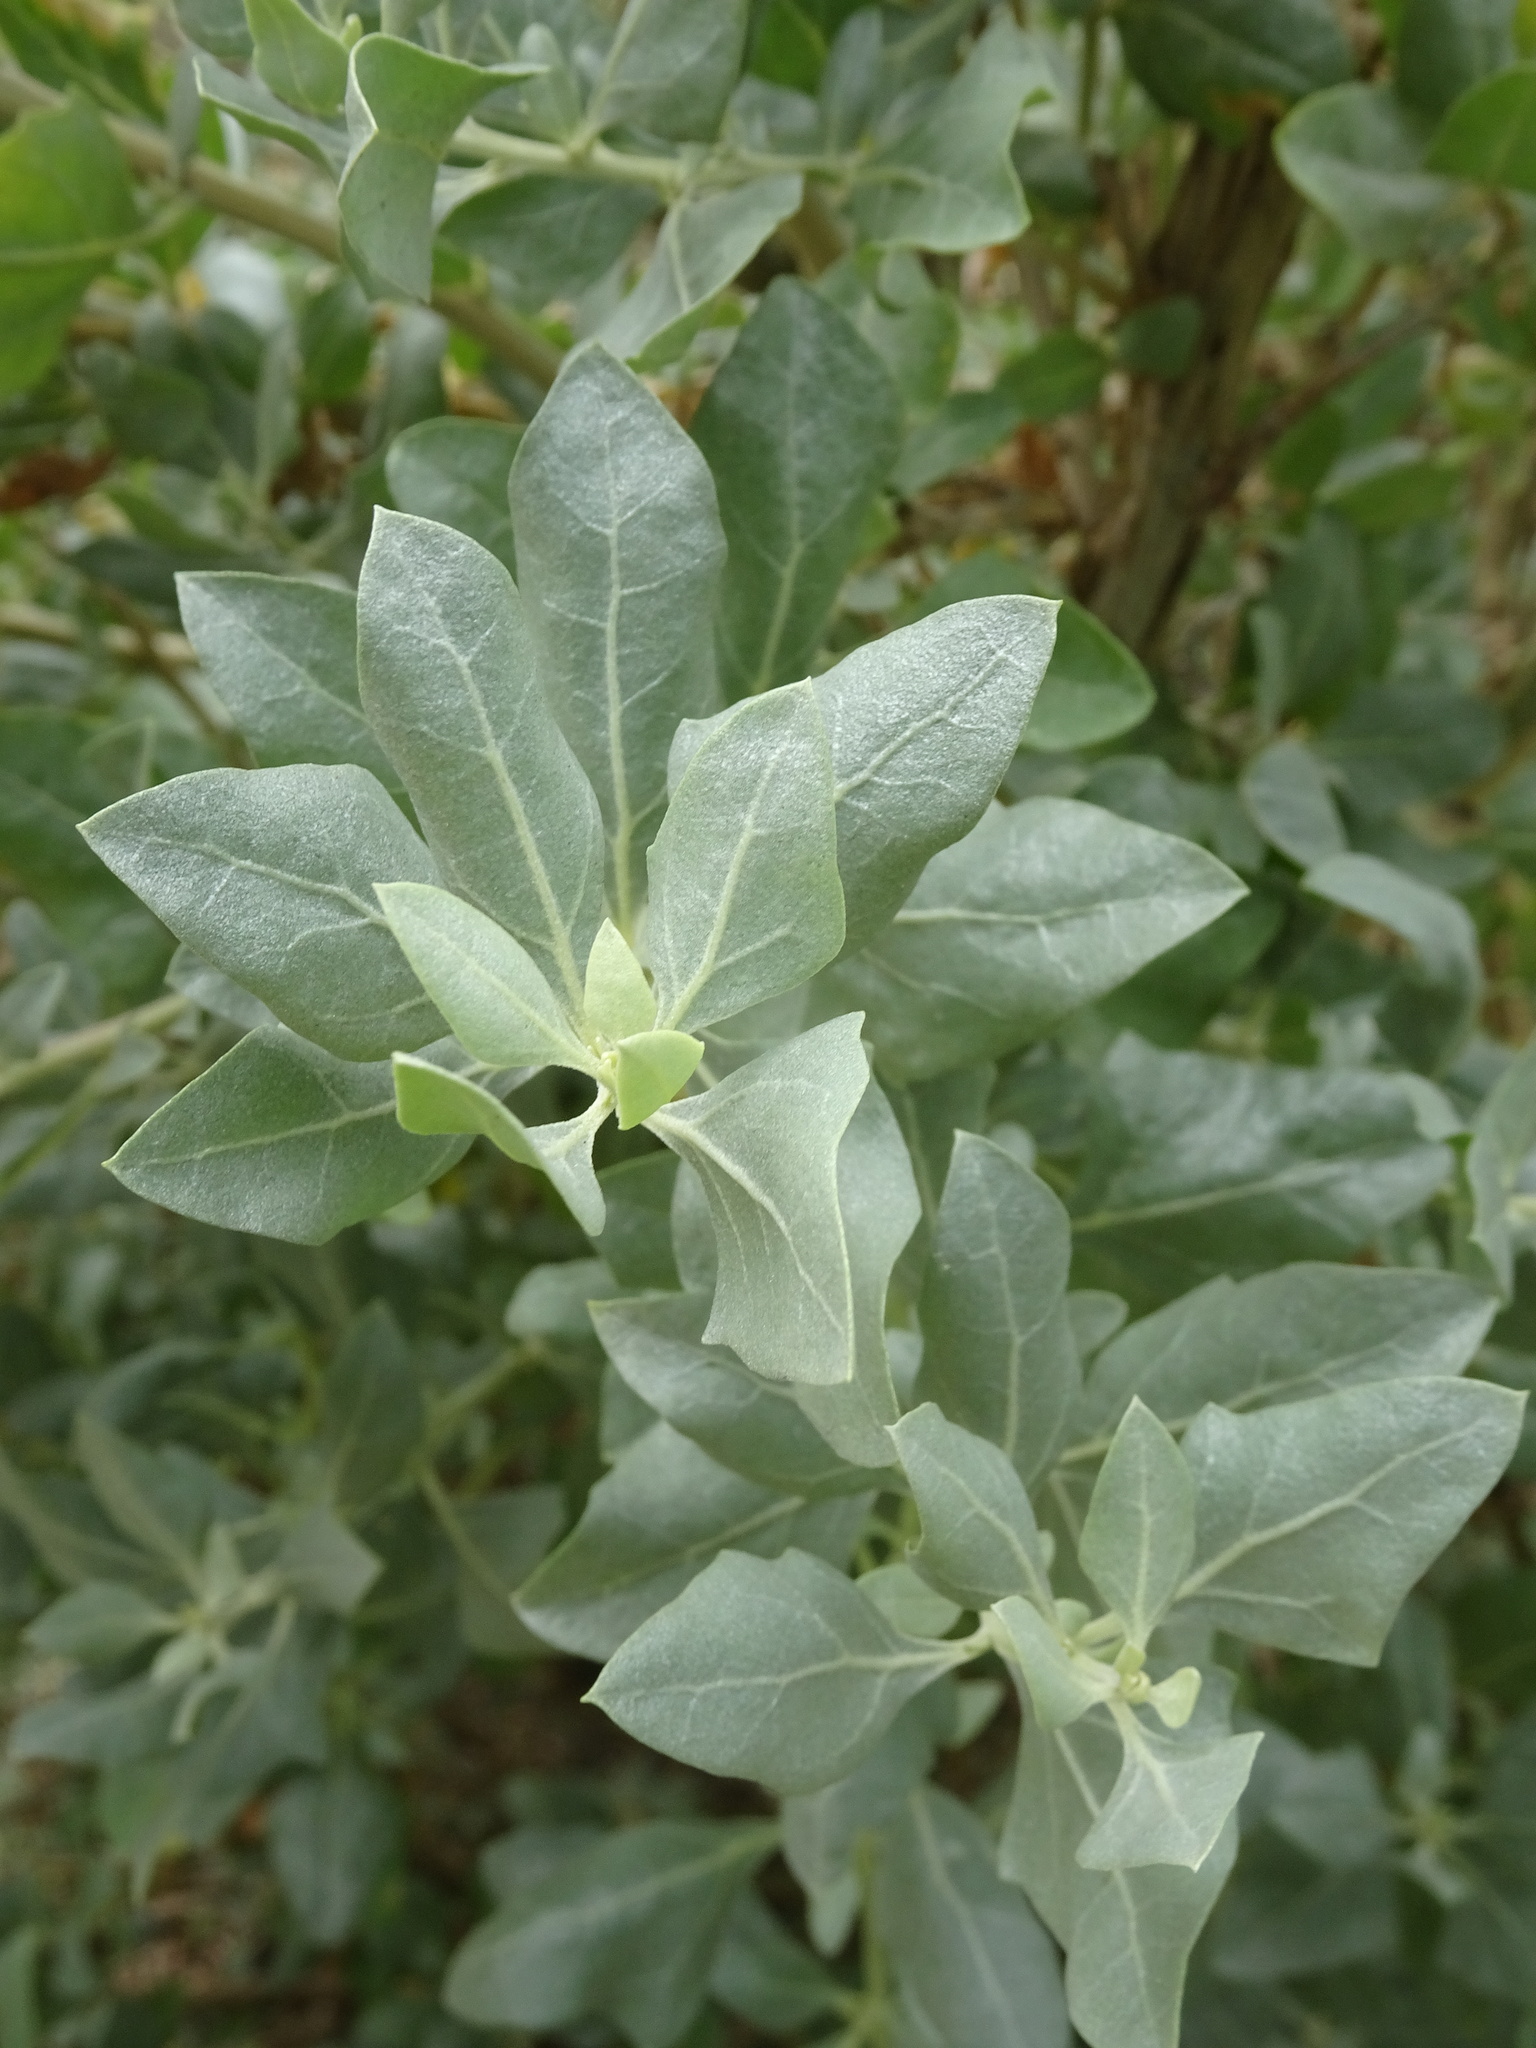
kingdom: Plantae
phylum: Tracheophyta
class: Magnoliopsida
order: Caryophyllales
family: Amaranthaceae
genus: Atriplex
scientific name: Atriplex halimus
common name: Shrubby orache
